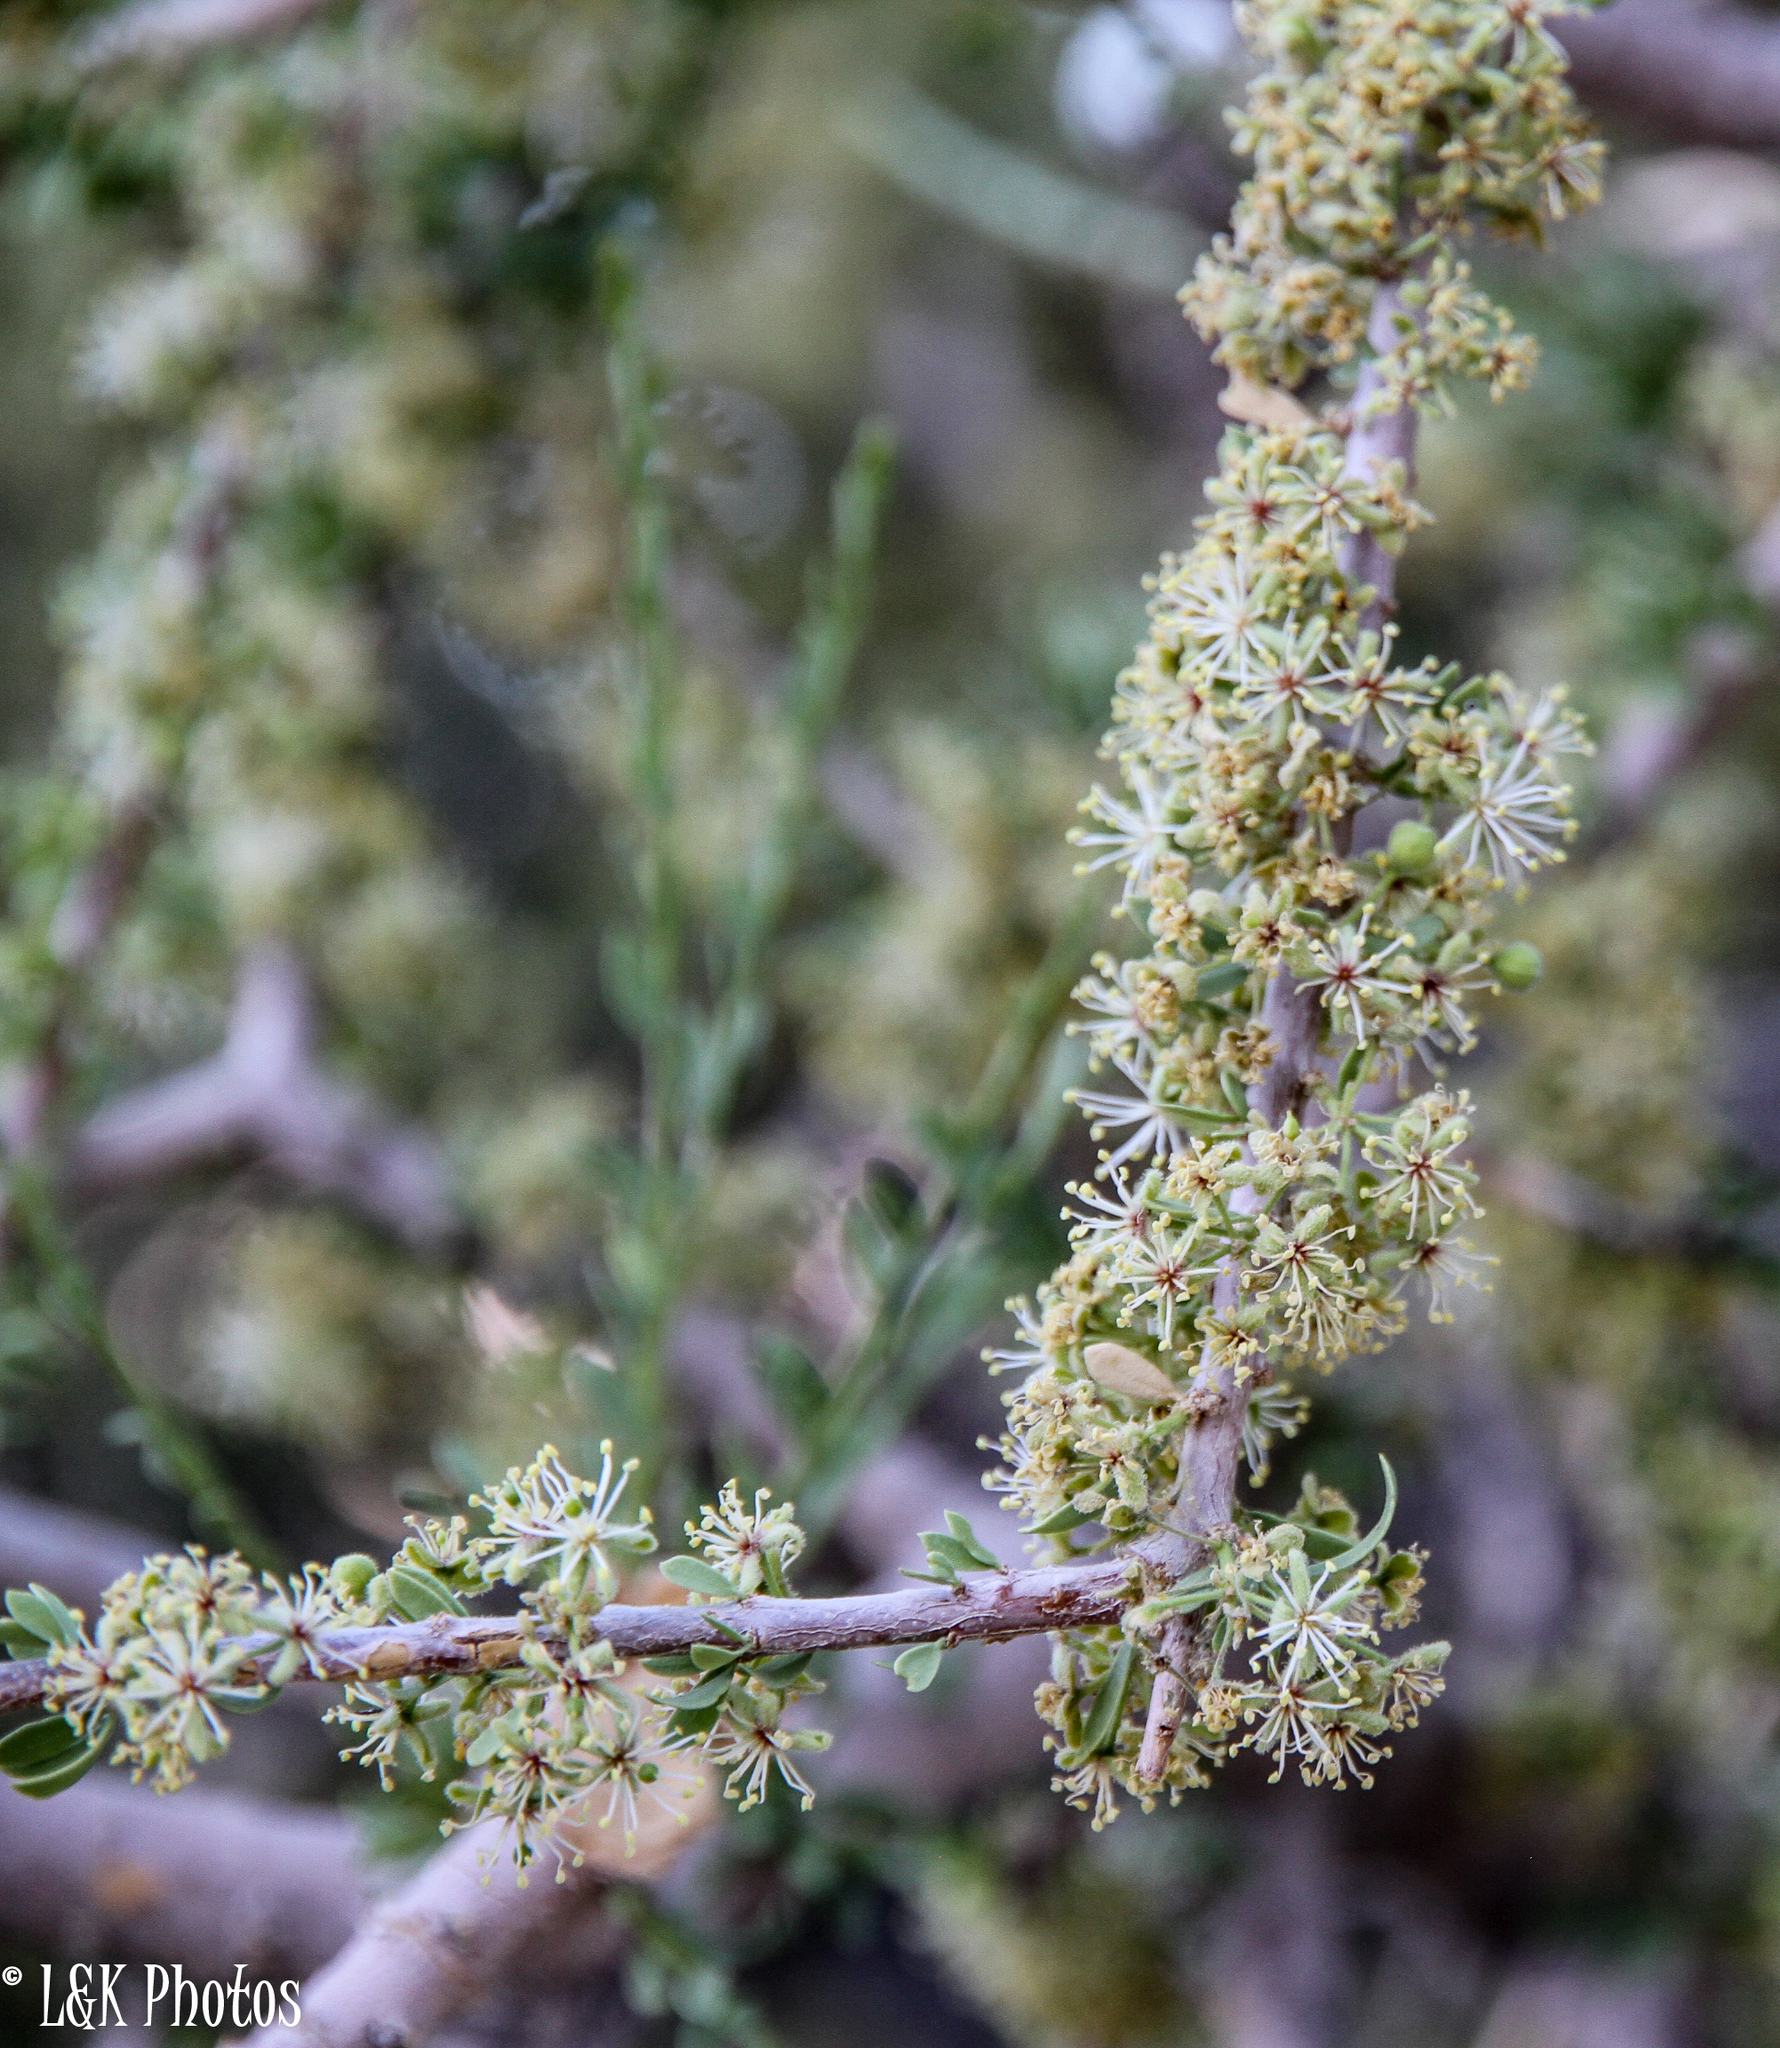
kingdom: Plantae
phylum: Tracheophyta
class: Magnoliopsida
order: Brassicales
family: Capparaceae
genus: Boscia
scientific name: Boscia foetida
